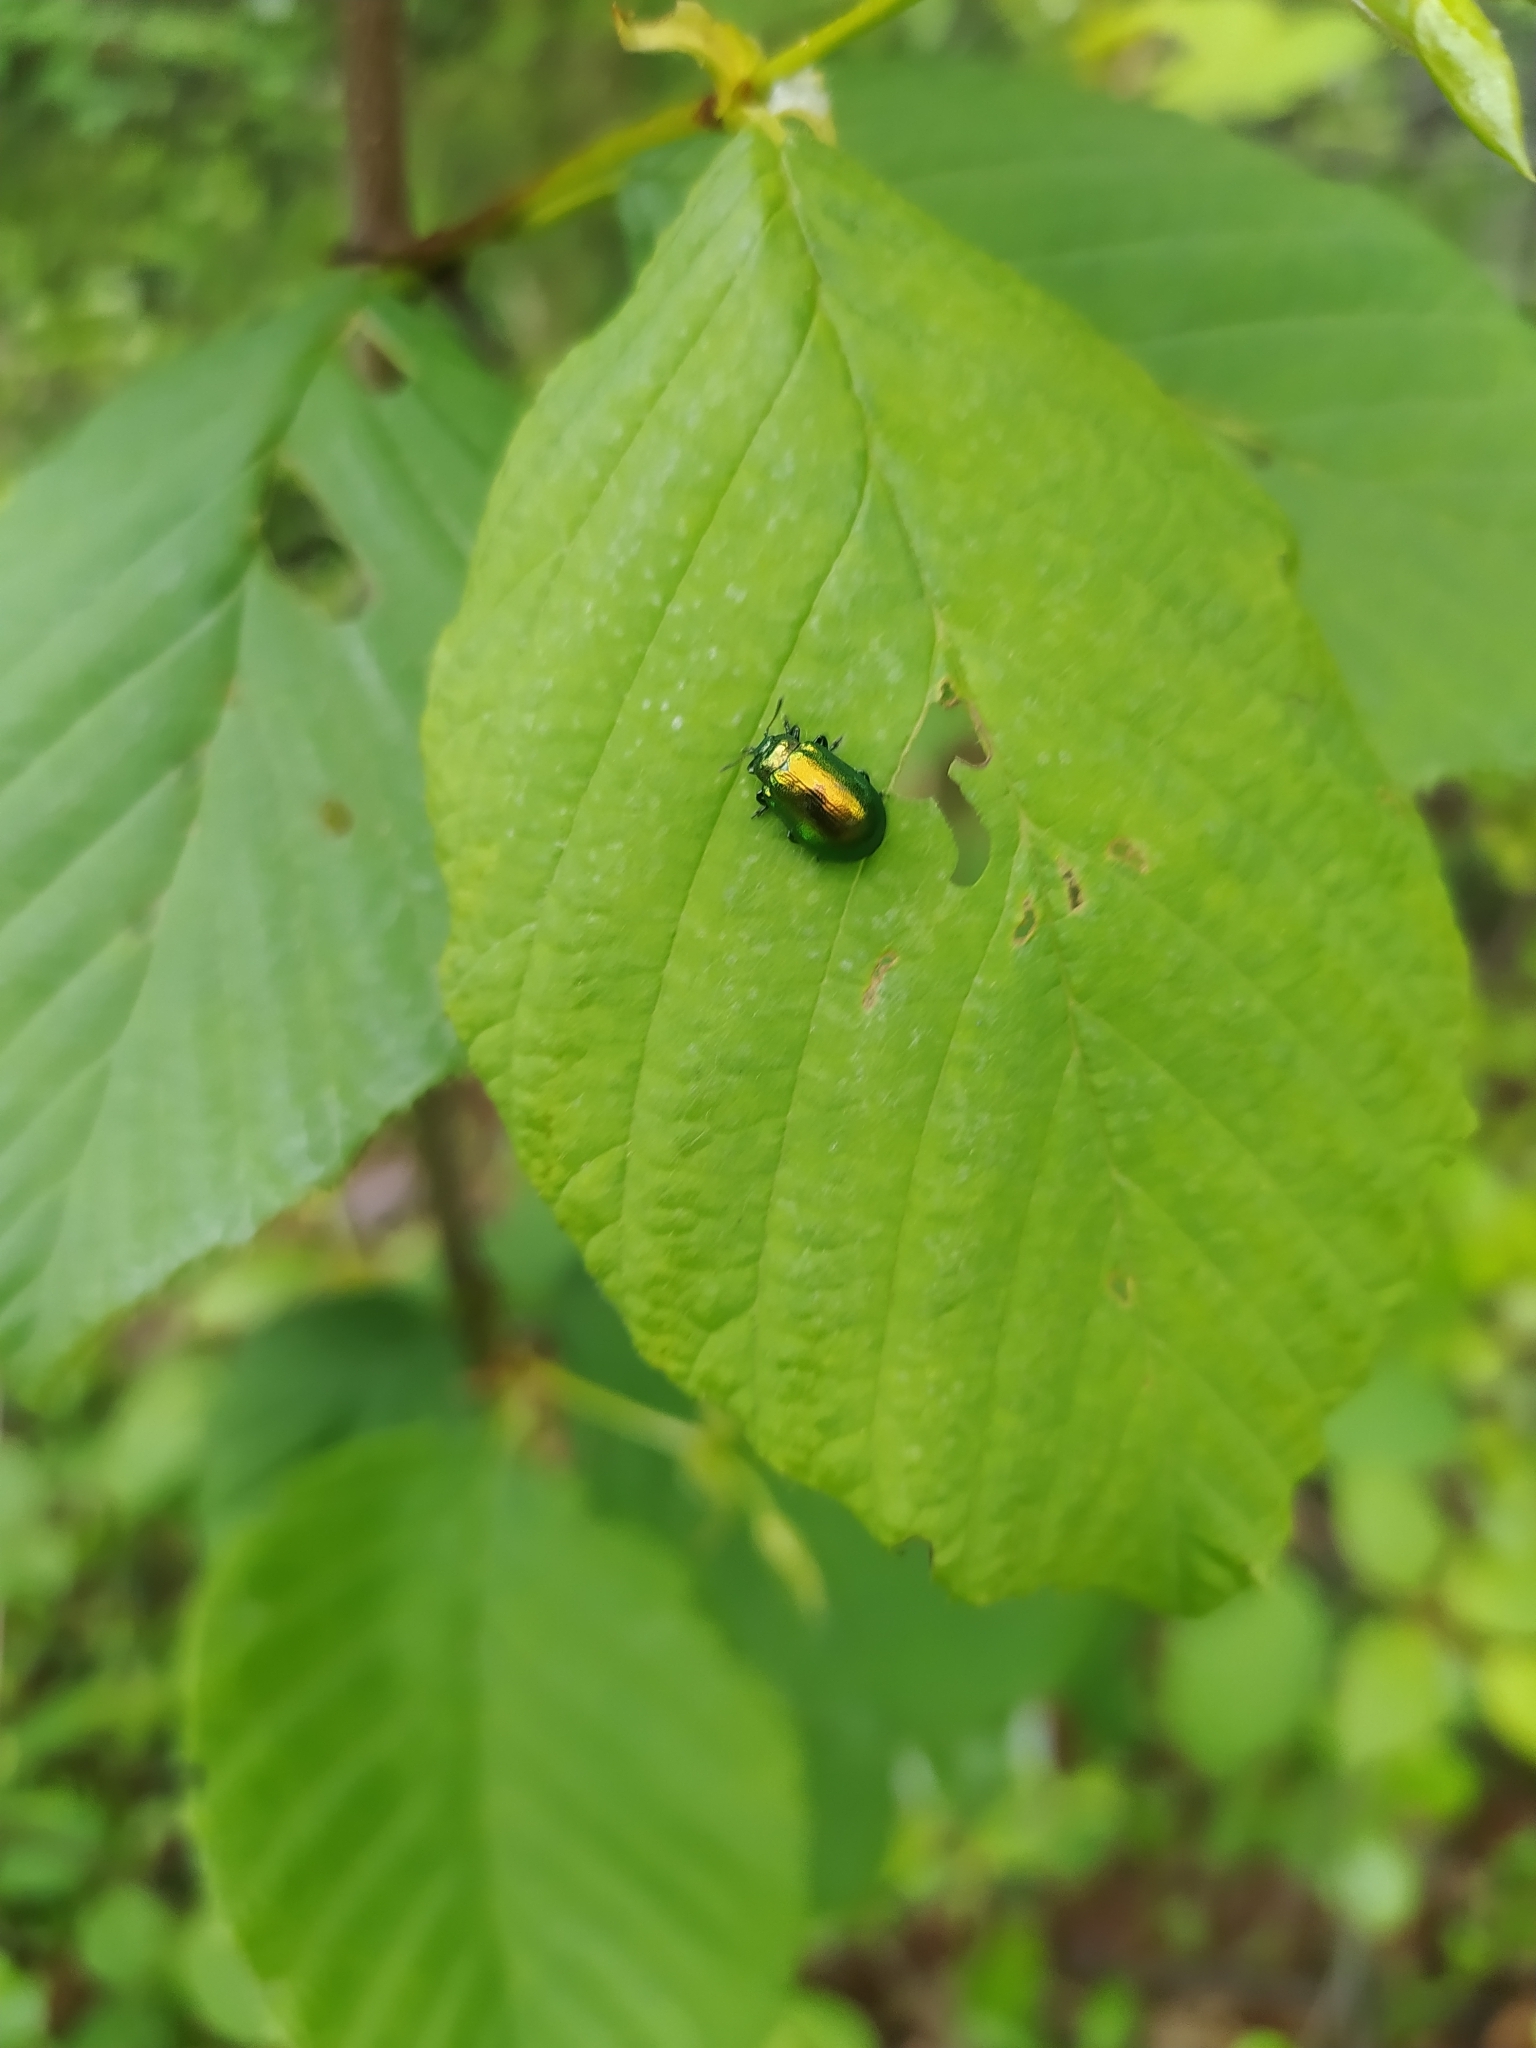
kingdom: Animalia
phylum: Arthropoda
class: Insecta
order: Coleoptera
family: Chrysomelidae
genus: Plagiosterna
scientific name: Plagiosterna aenea
